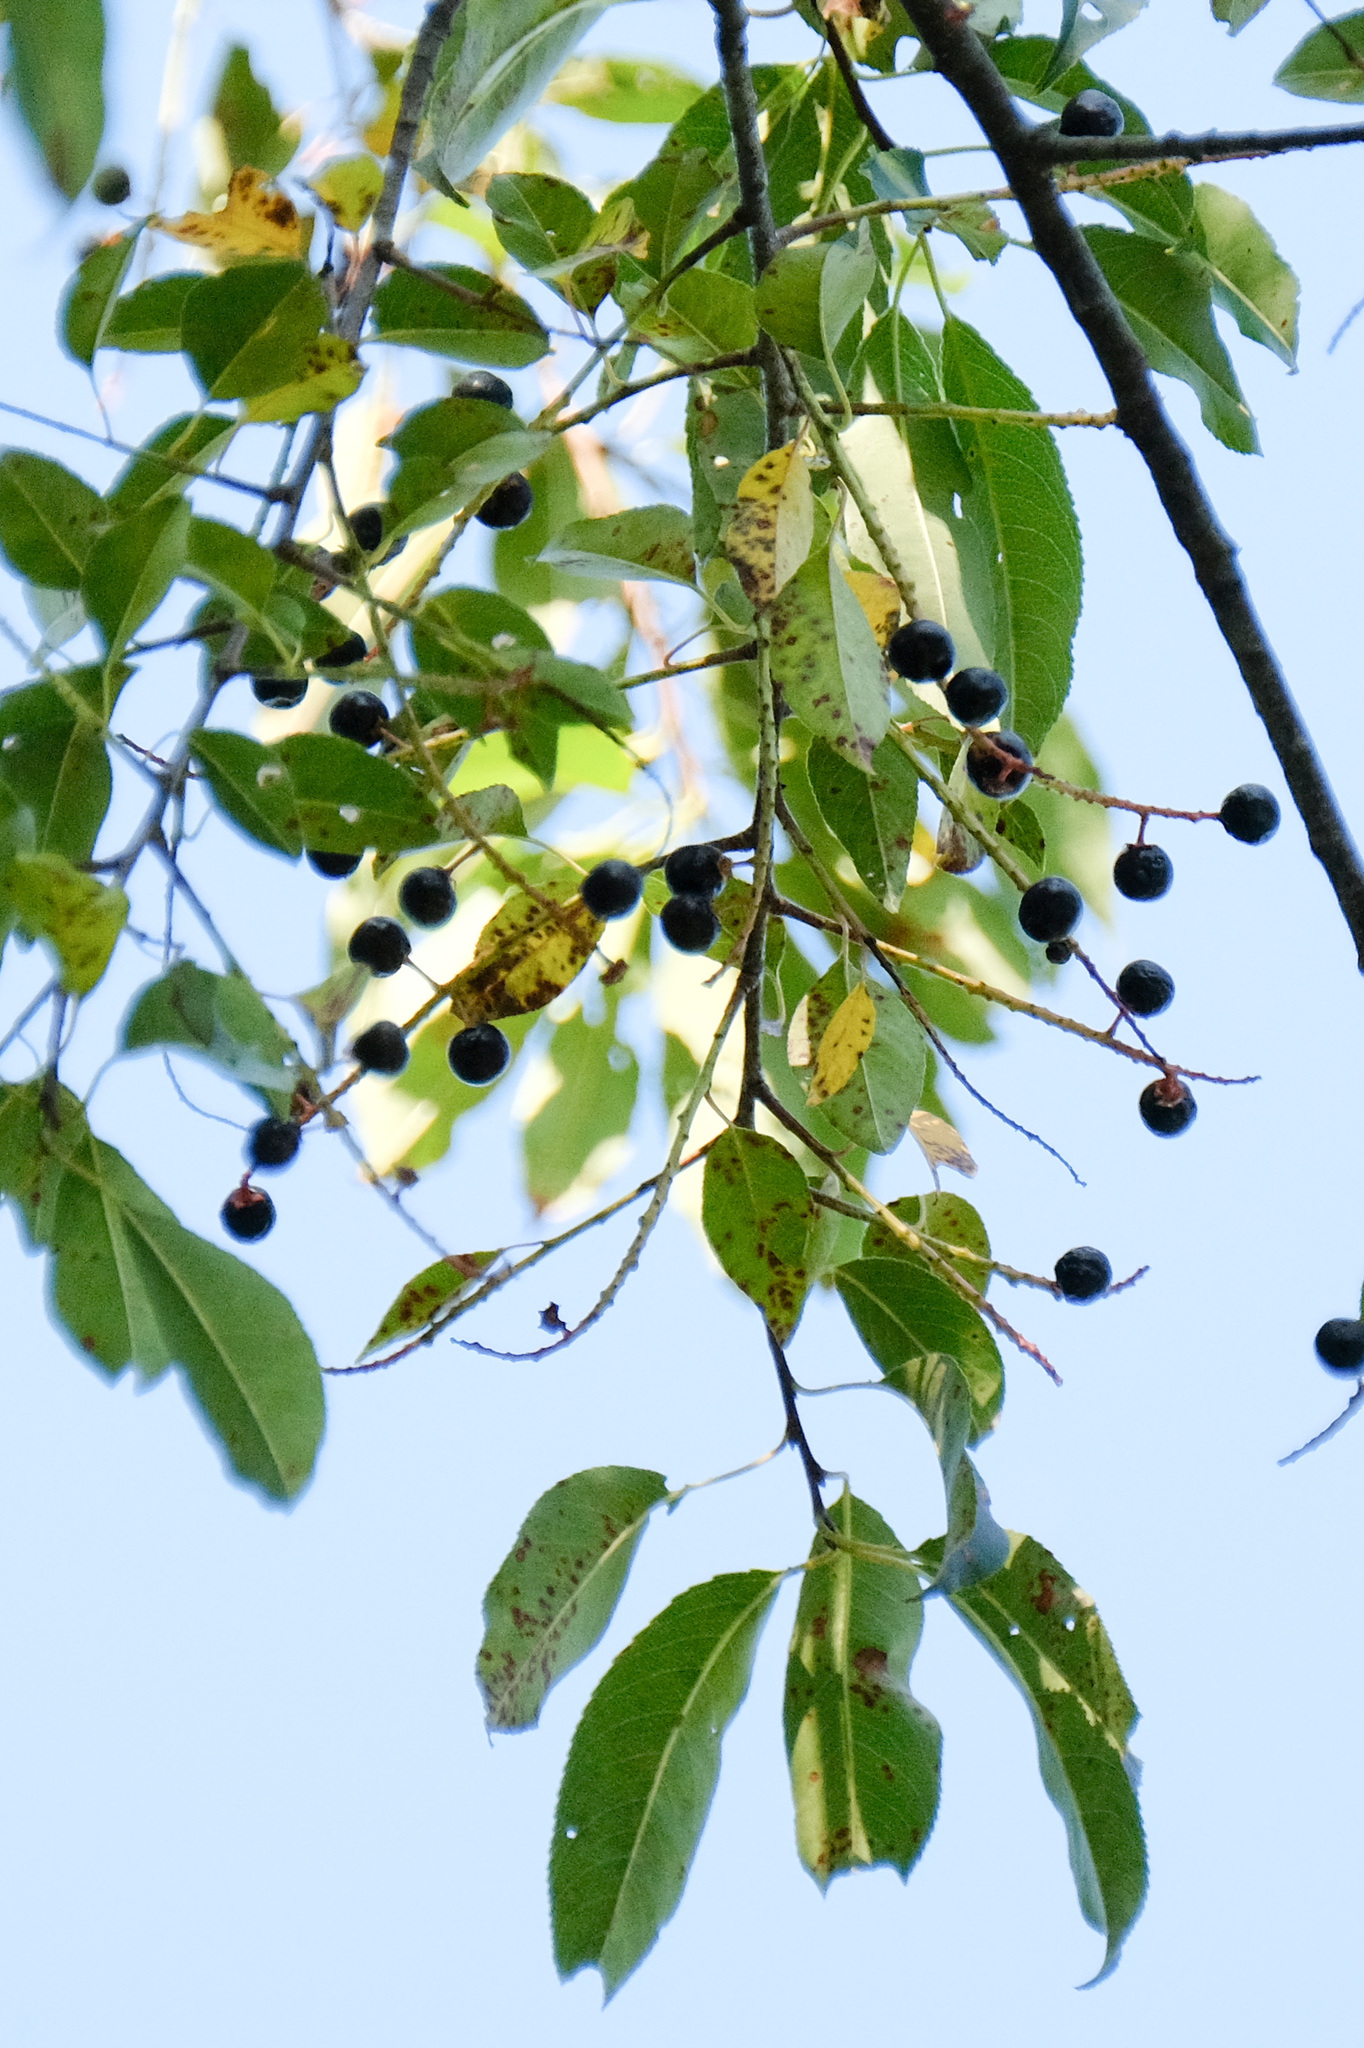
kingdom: Plantae
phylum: Tracheophyta
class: Magnoliopsida
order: Rosales
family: Rosaceae
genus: Prunus
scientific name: Prunus serotina
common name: Black cherry
